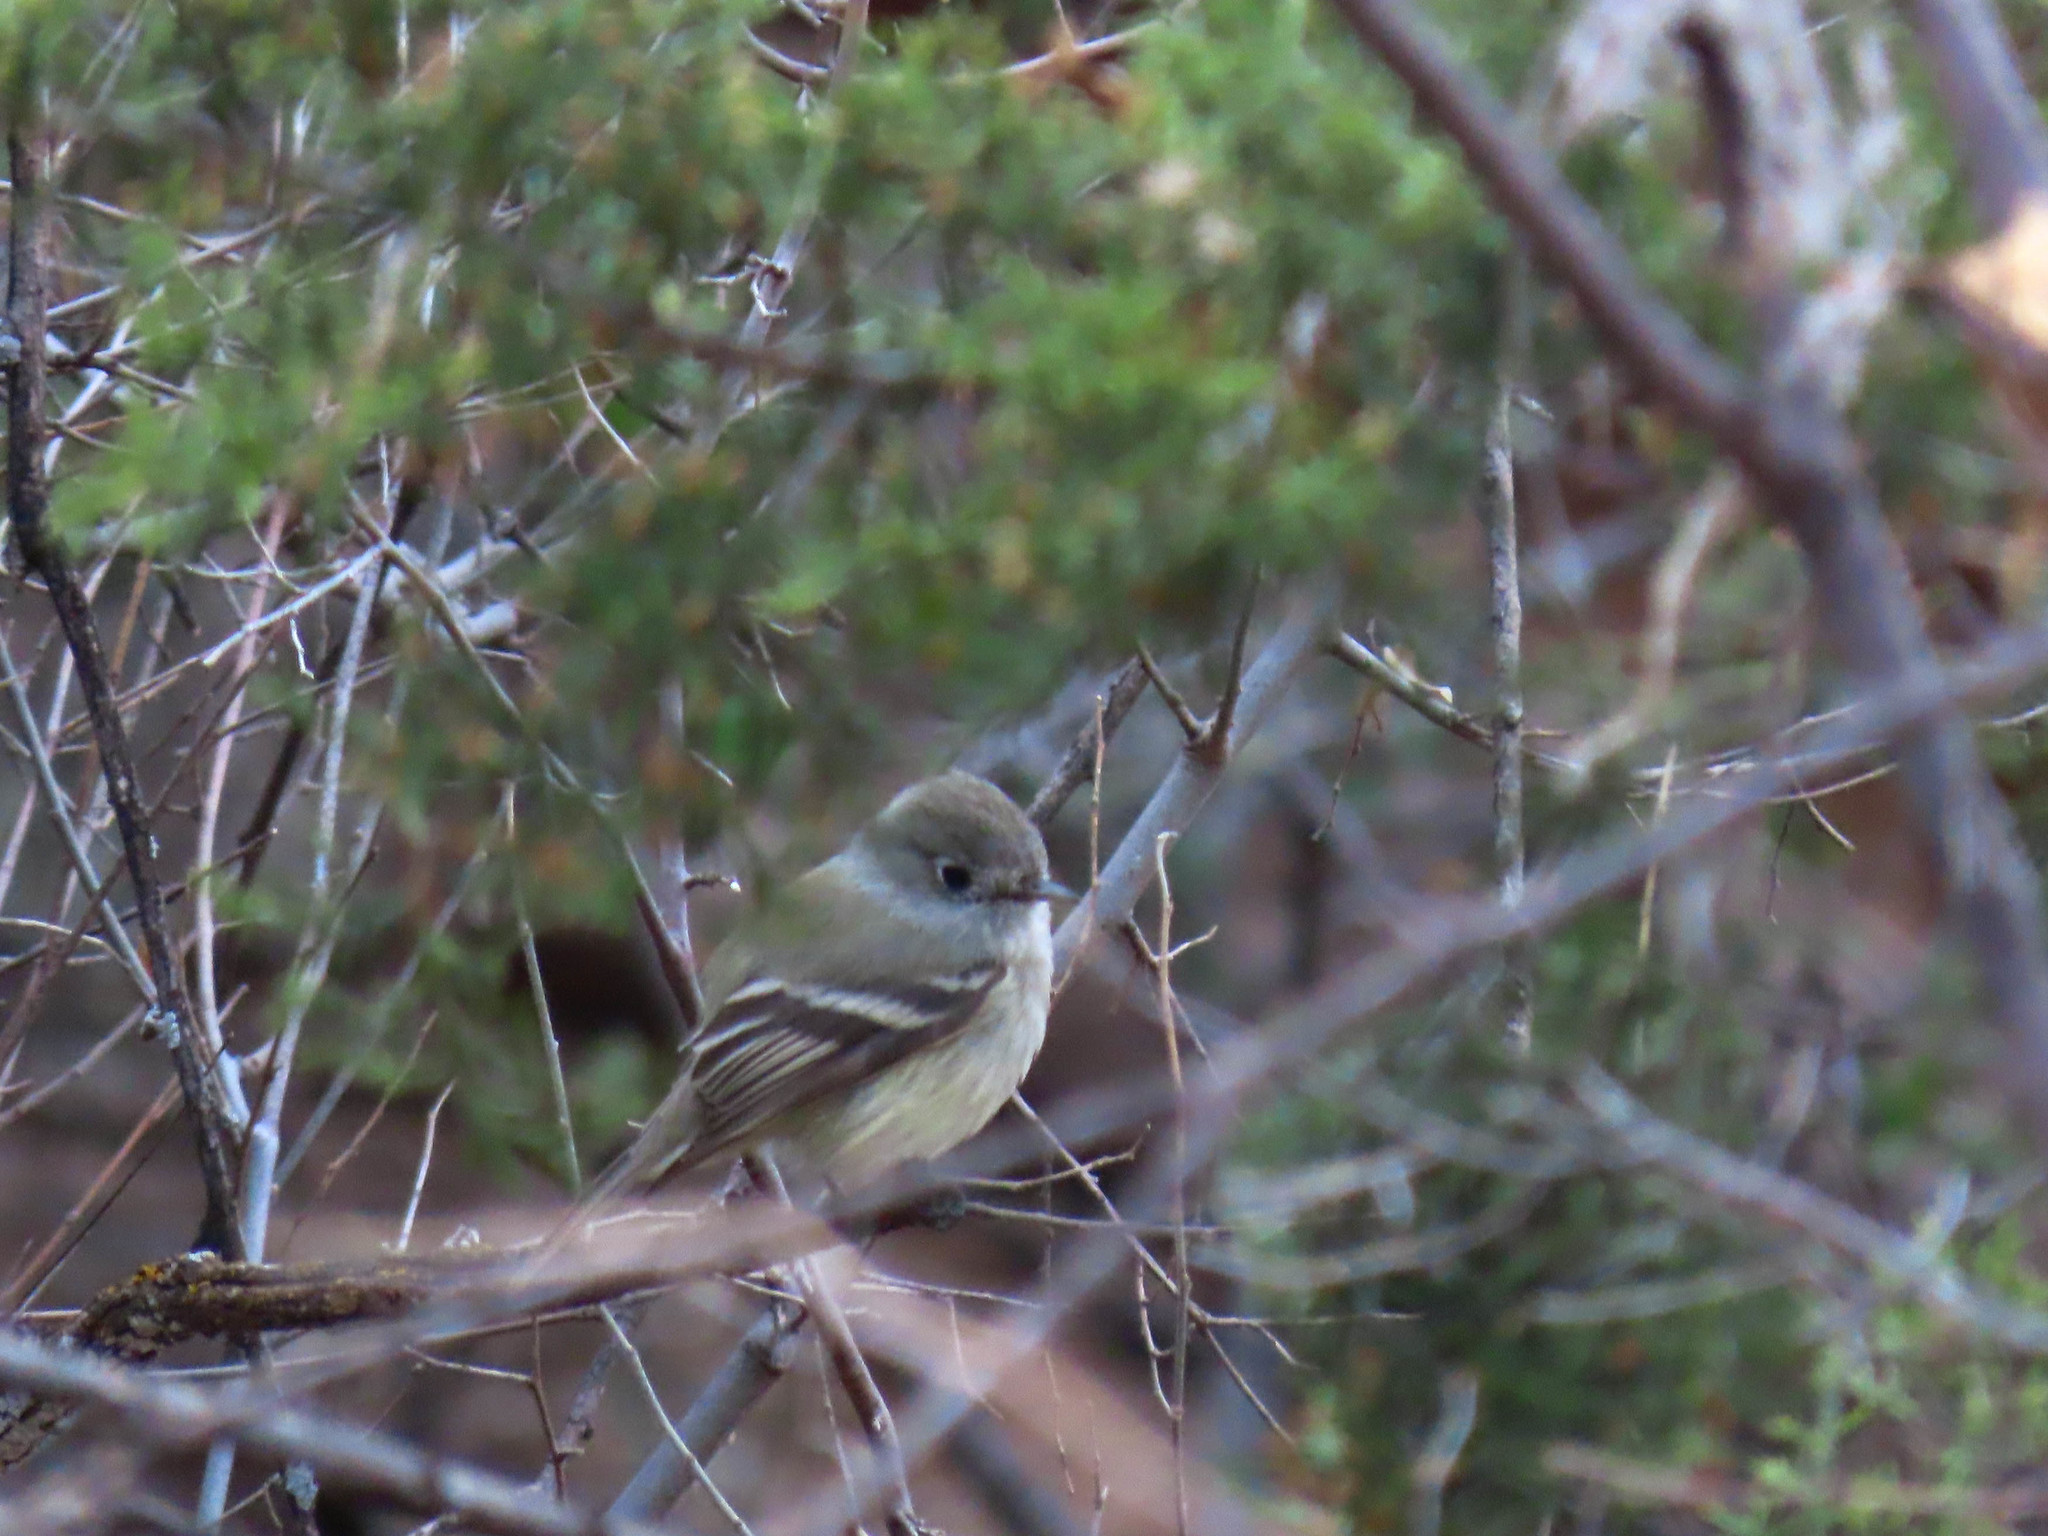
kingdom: Animalia
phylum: Chordata
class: Aves
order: Passeriformes
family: Tyrannidae
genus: Empidonax
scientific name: Empidonax hammondii
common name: Hammond's flycatcher
